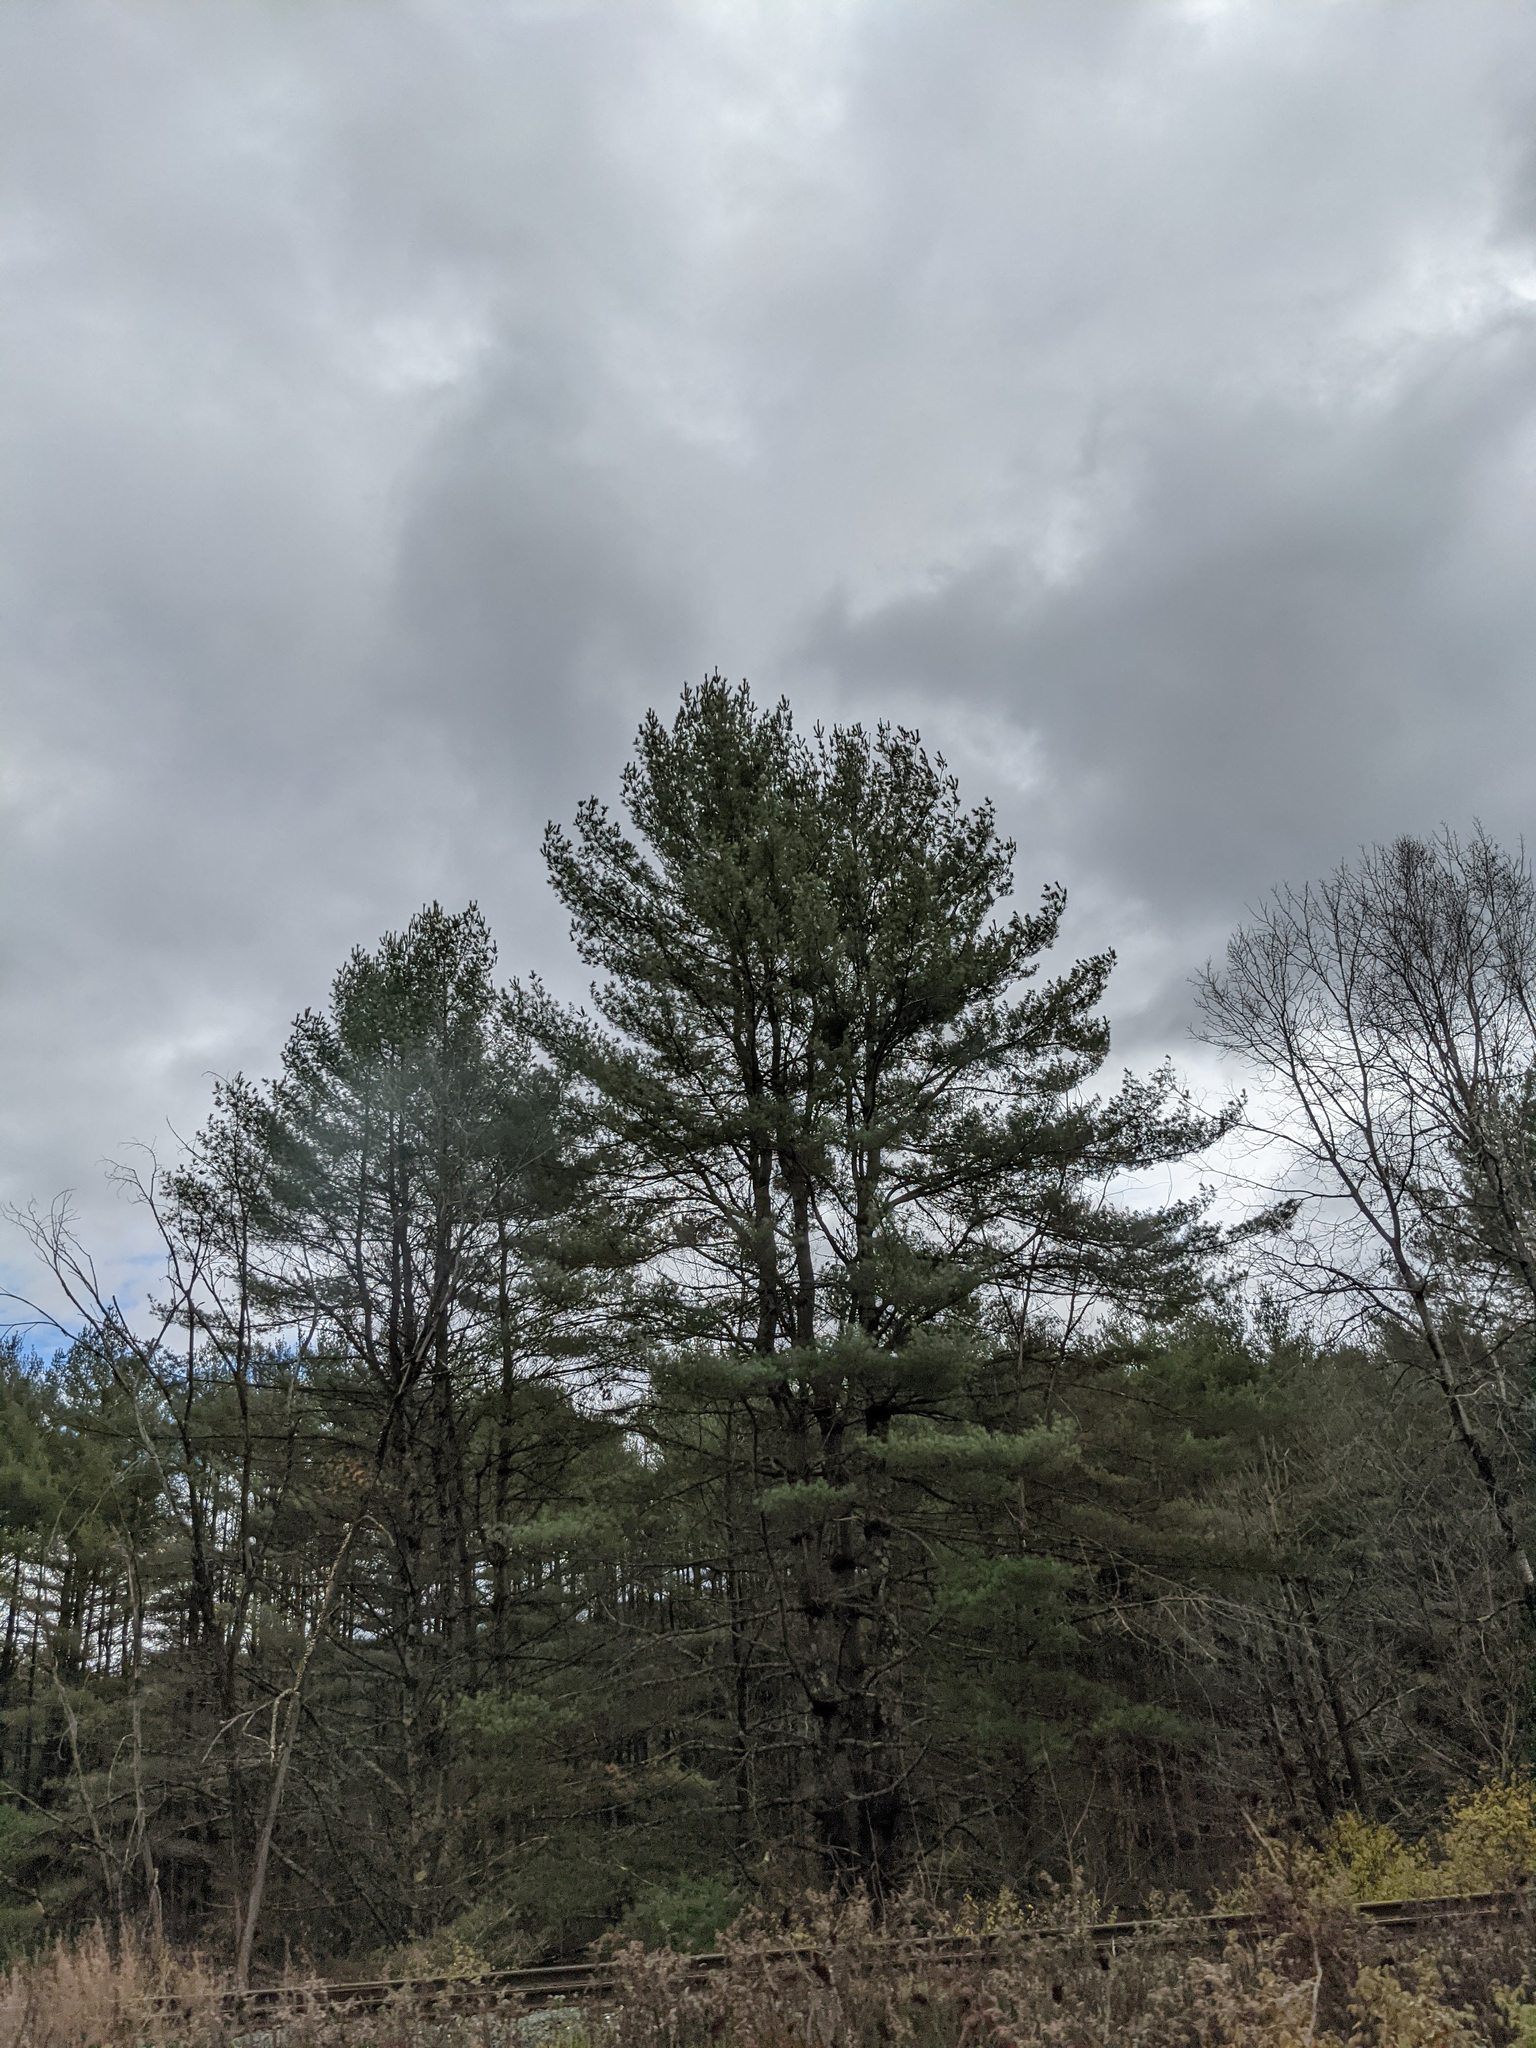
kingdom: Plantae
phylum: Tracheophyta
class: Pinopsida
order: Pinales
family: Pinaceae
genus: Pinus
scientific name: Pinus strobus
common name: Weymouth pine
